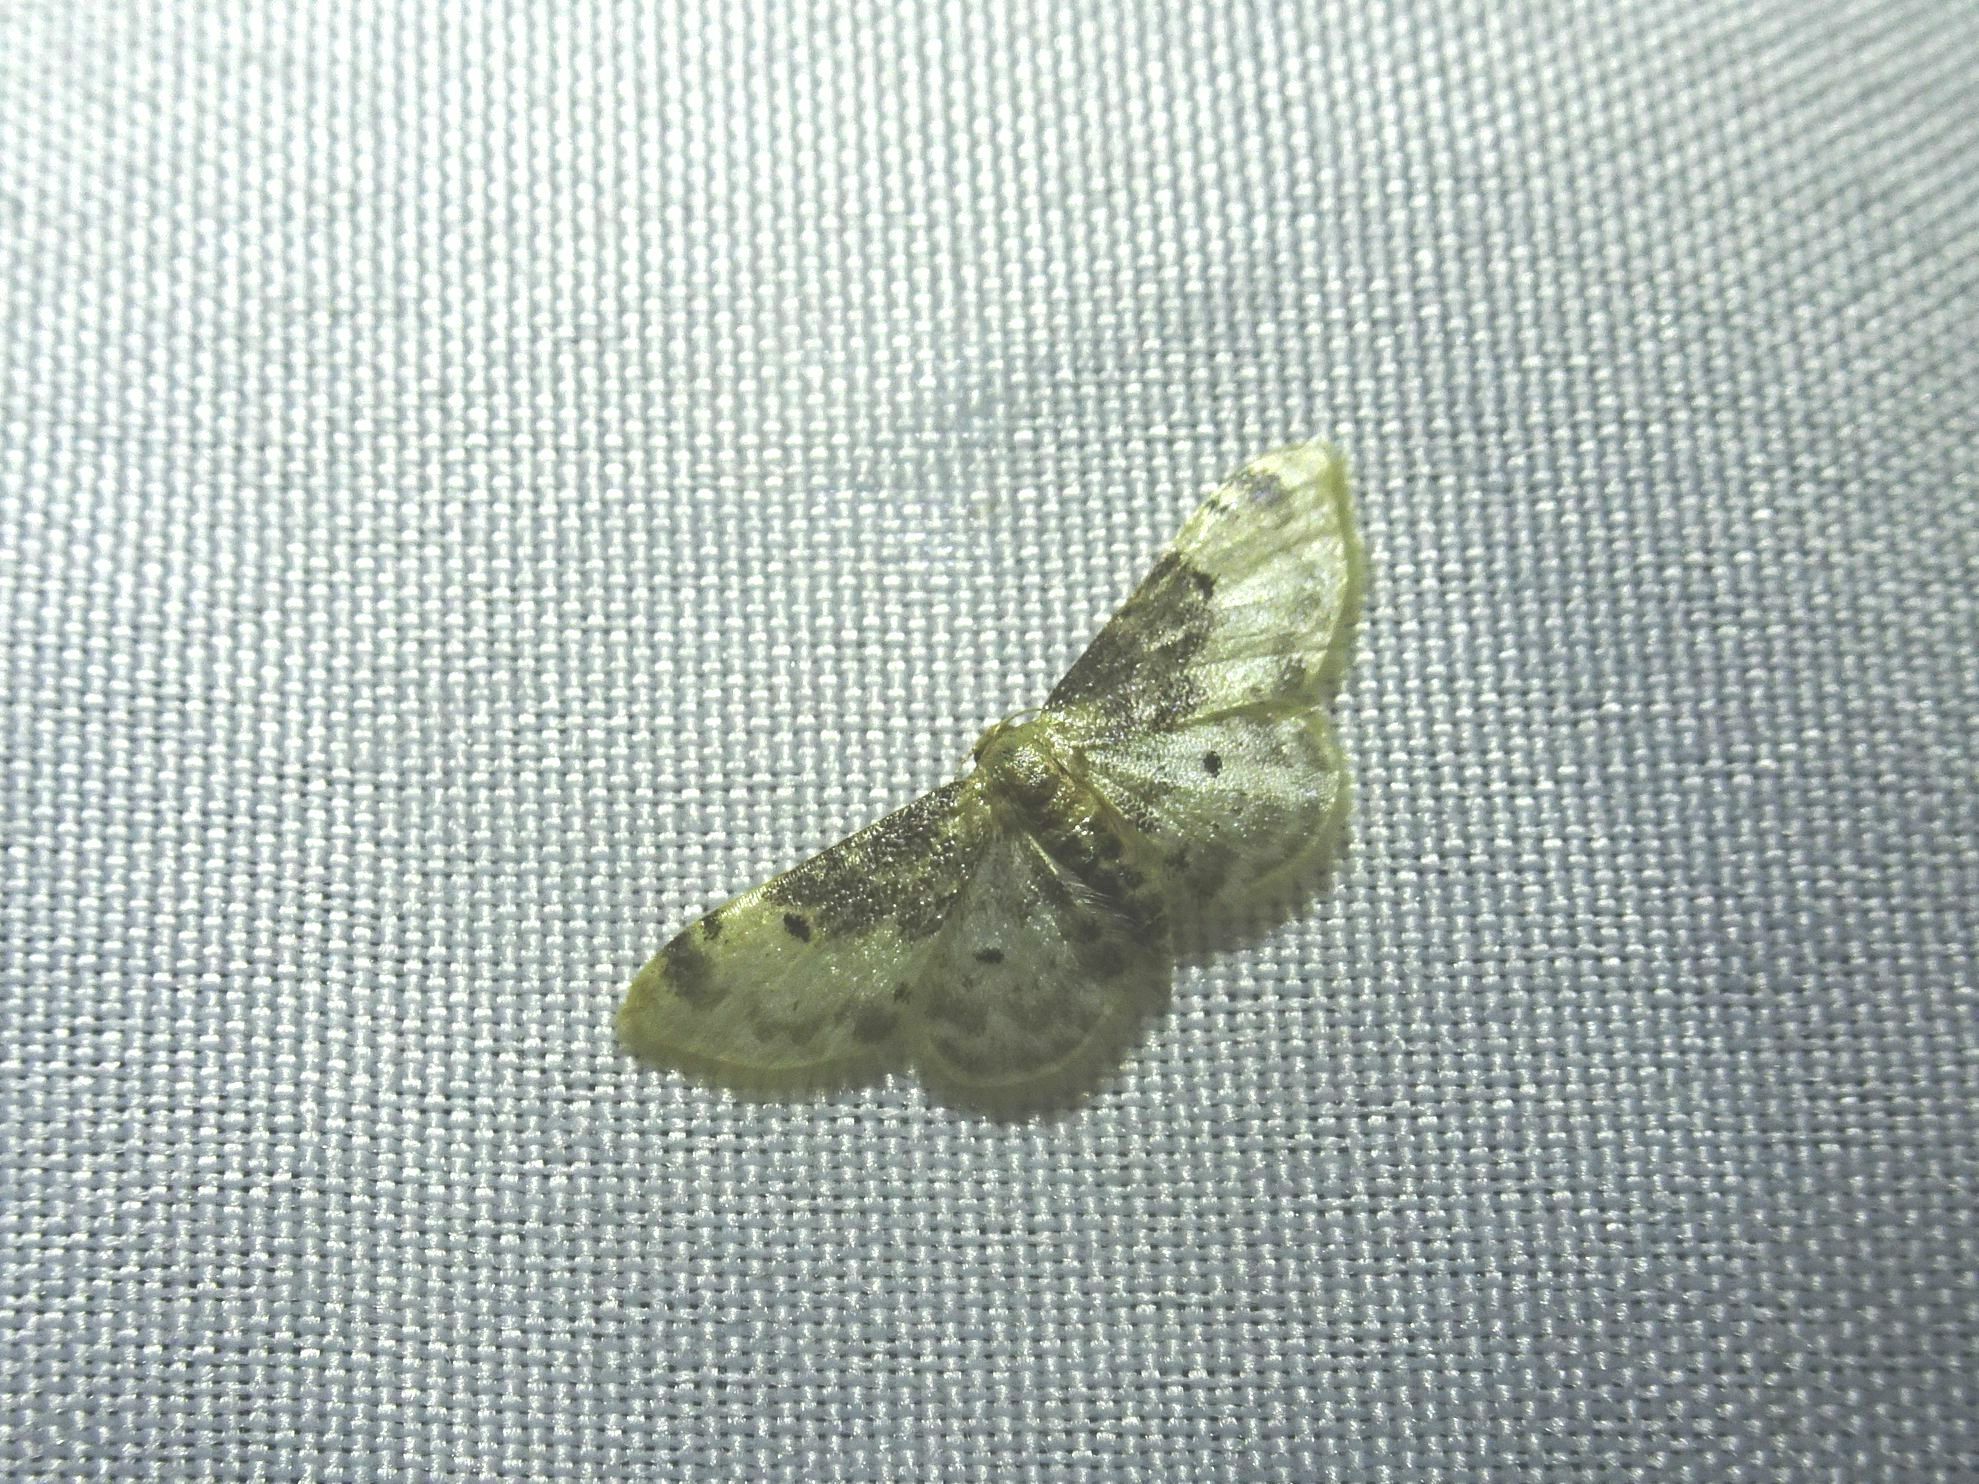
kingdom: Animalia
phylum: Arthropoda
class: Insecta
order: Lepidoptera
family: Geometridae
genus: Idaea
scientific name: Idaea filicata
